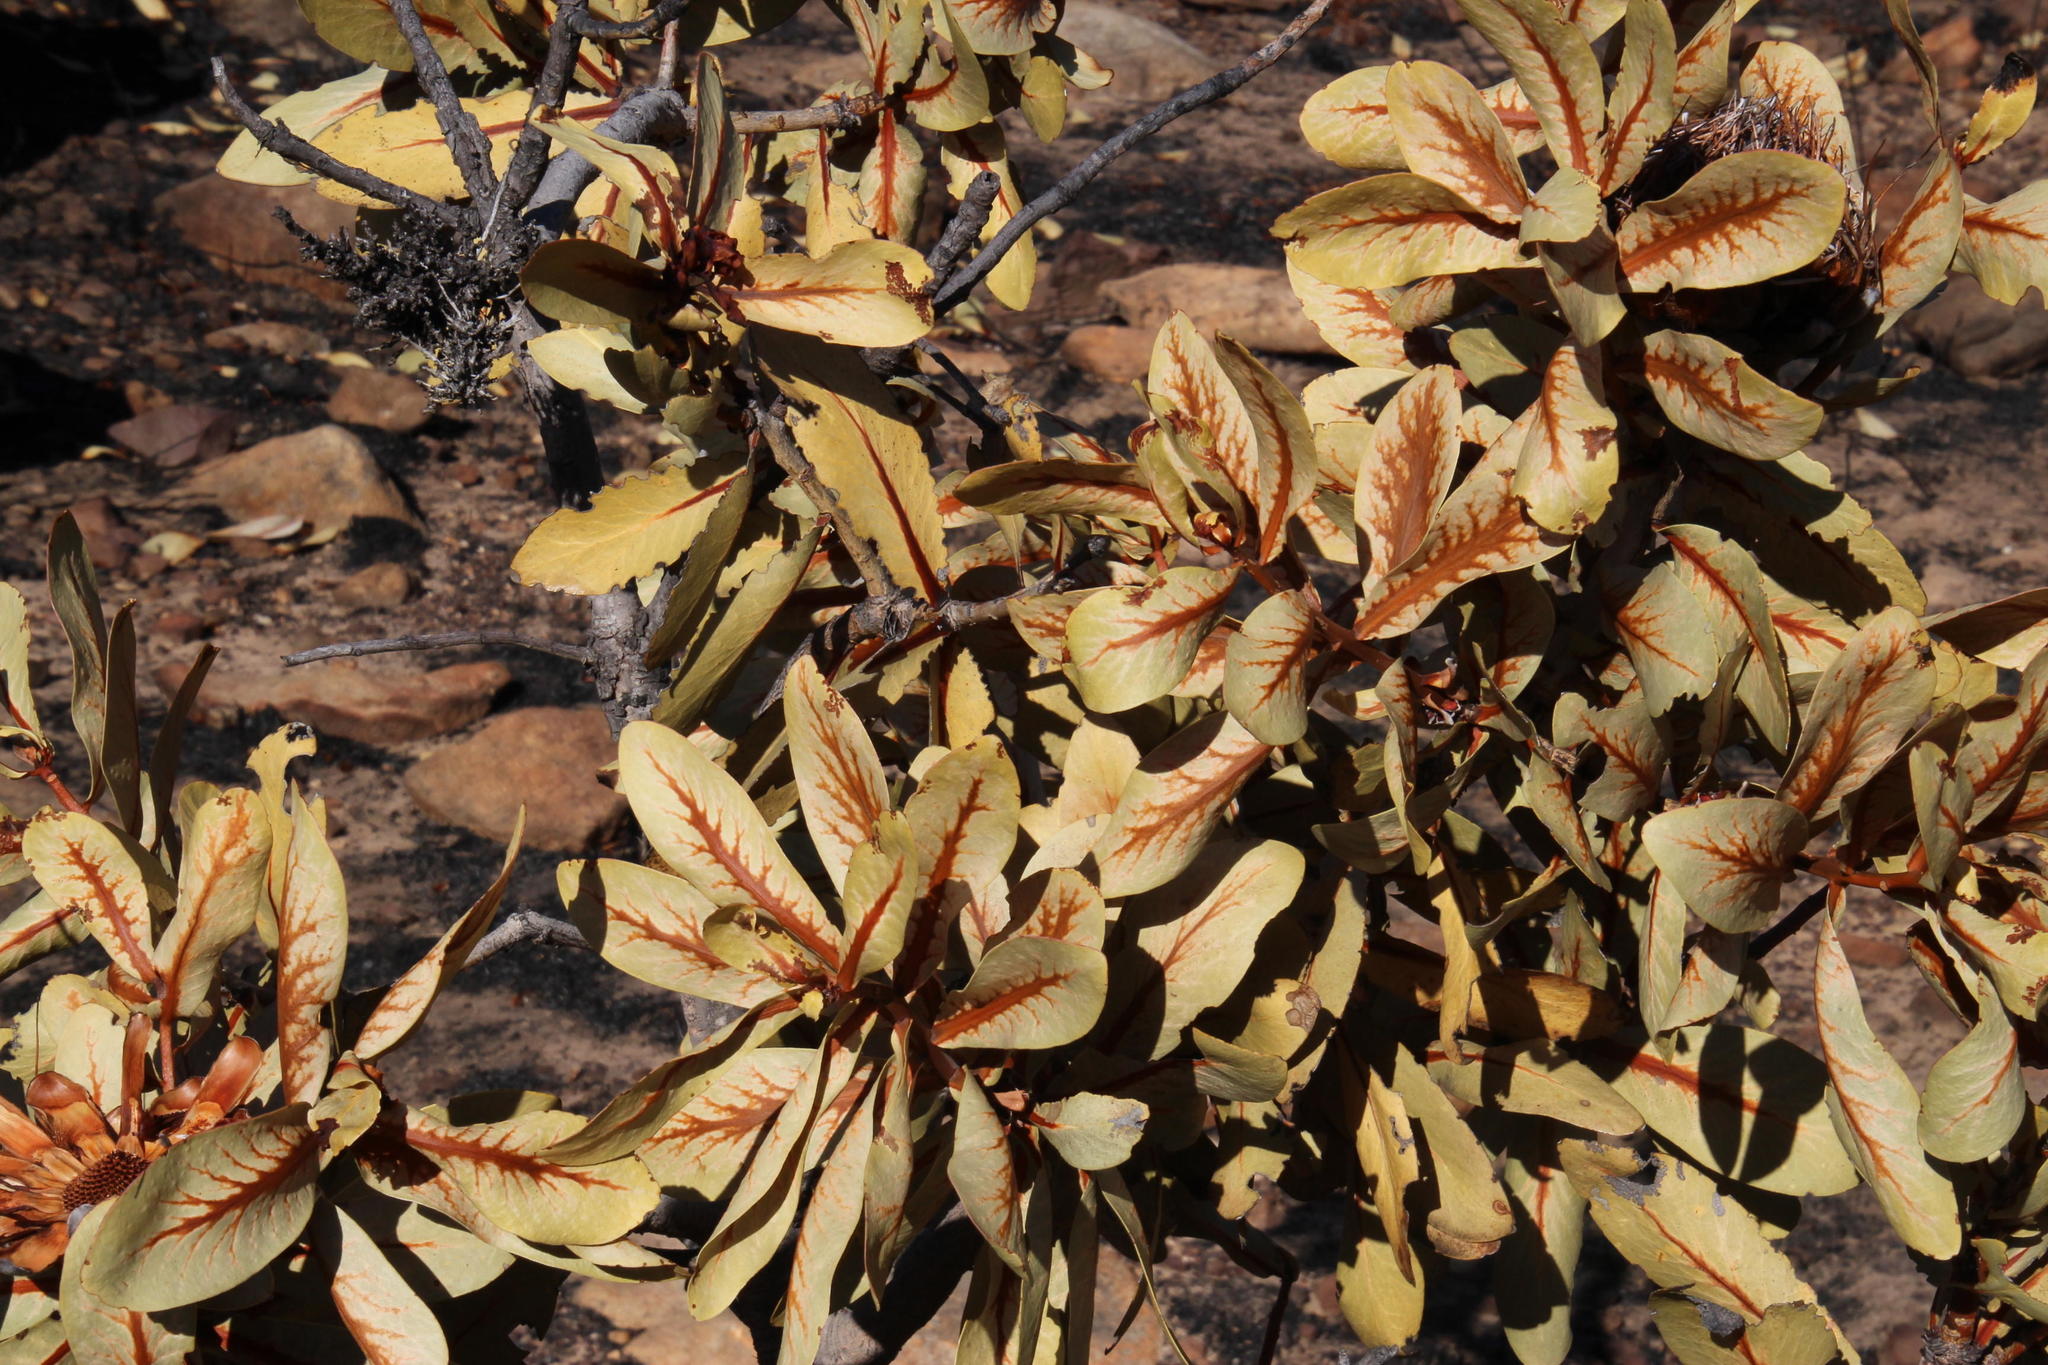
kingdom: Plantae
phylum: Tracheophyta
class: Magnoliopsida
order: Proteales
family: Proteaceae
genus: Protea
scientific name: Protea nitida
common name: Tree protea
